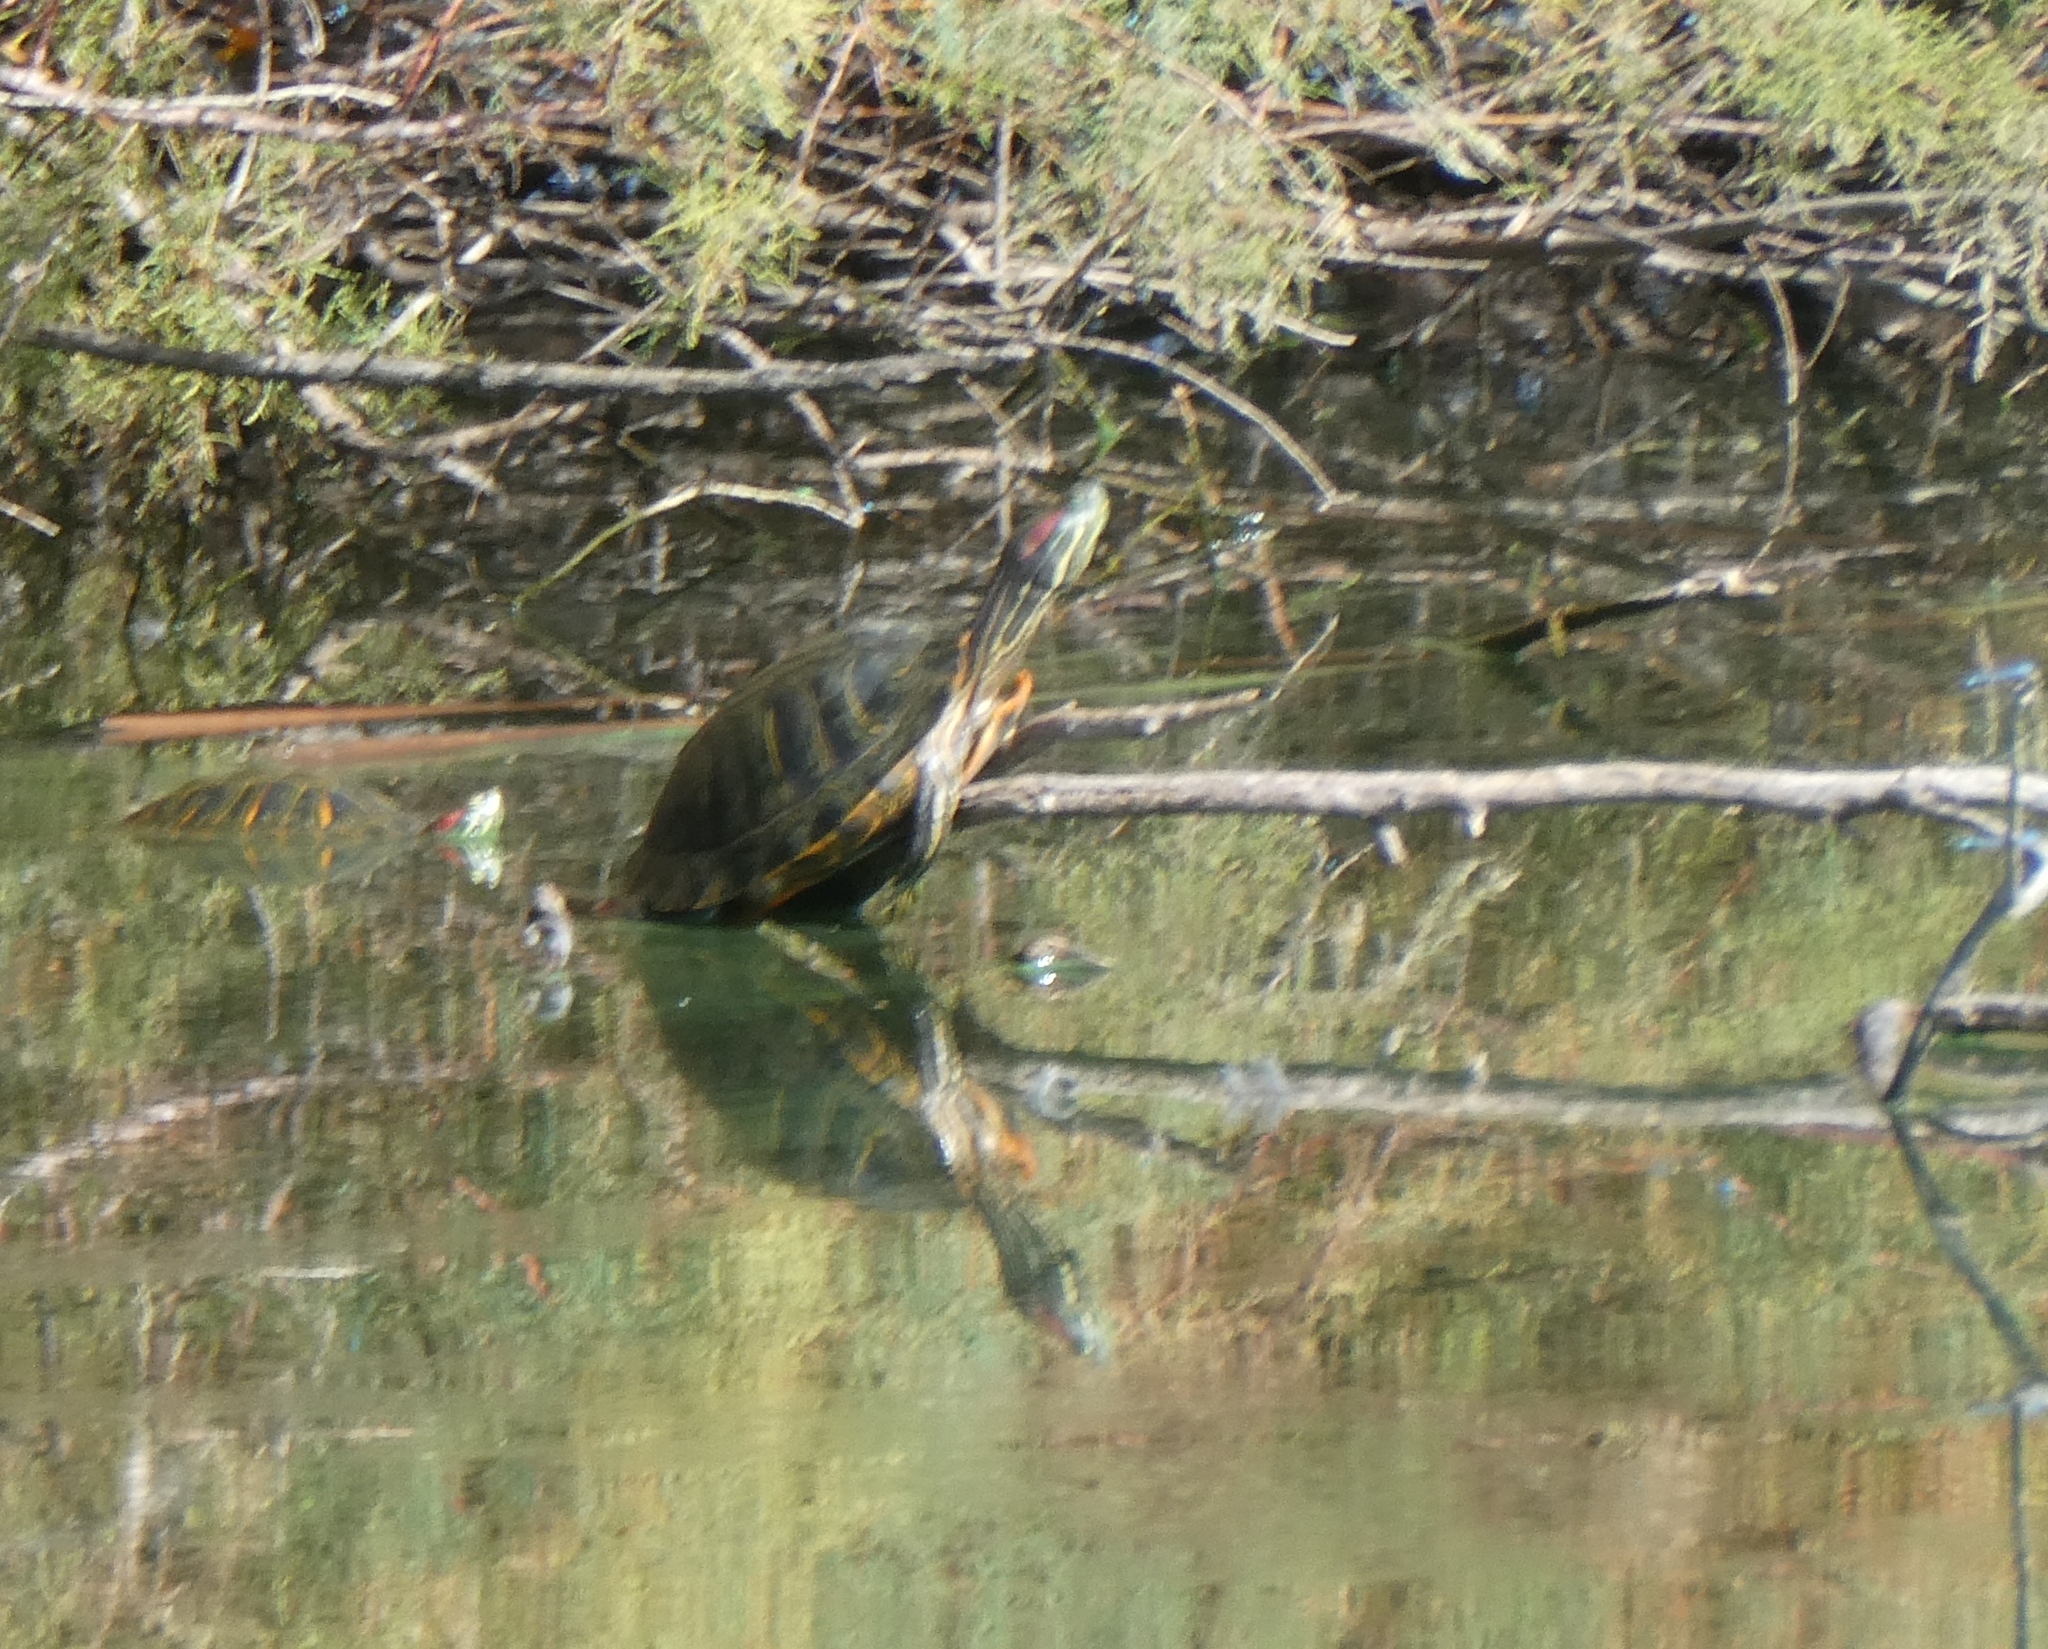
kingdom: Animalia
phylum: Chordata
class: Testudines
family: Emydidae
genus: Trachemys
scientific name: Trachemys scripta
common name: Slider
